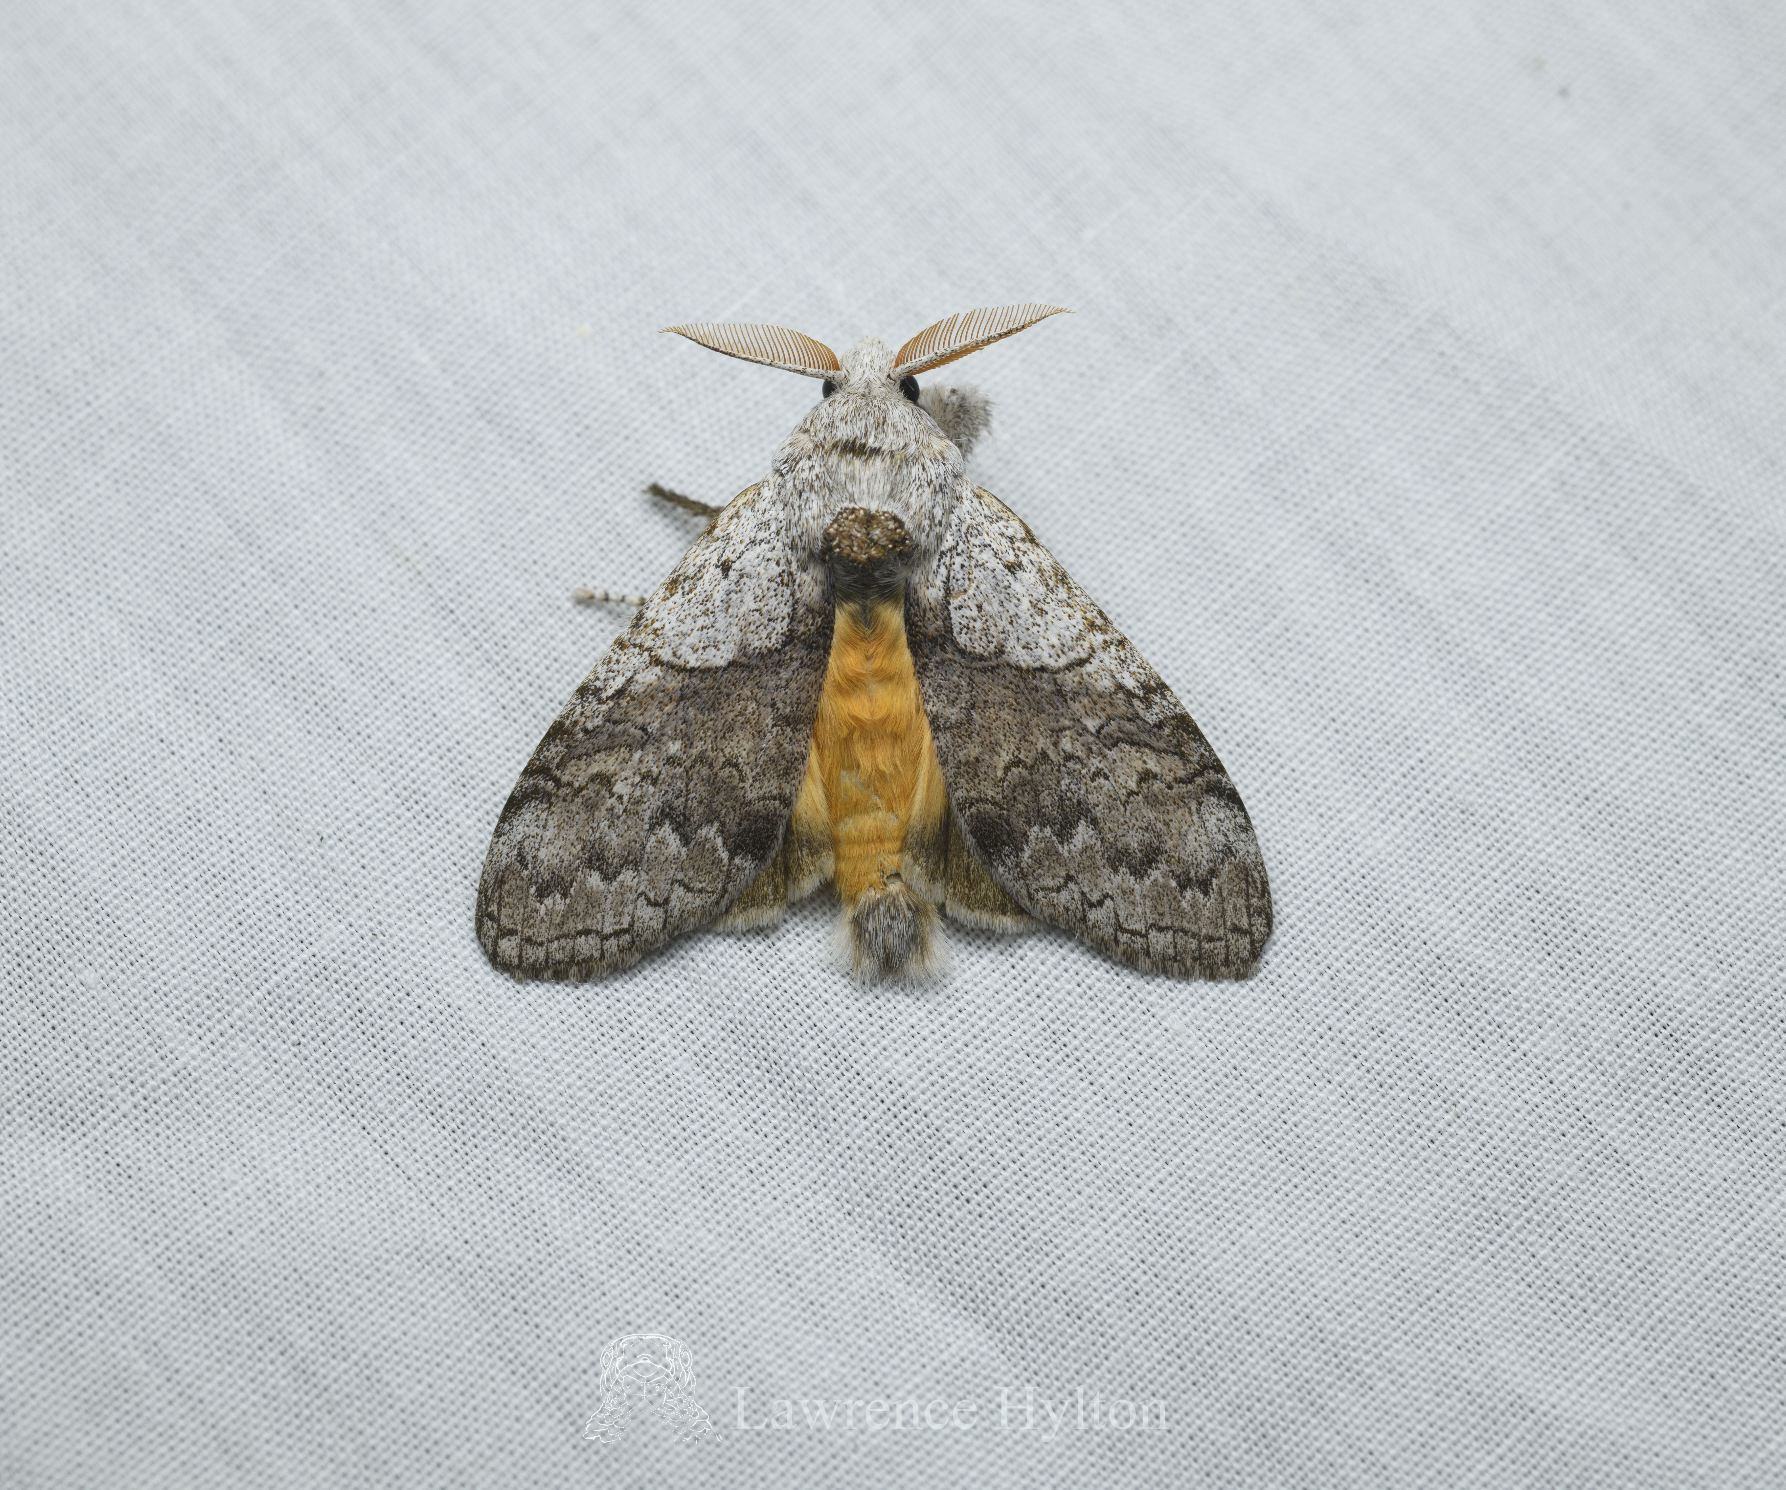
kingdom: Animalia
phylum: Arthropoda
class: Insecta
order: Lepidoptera
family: Erebidae
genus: Calliteara
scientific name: Calliteara grotei
